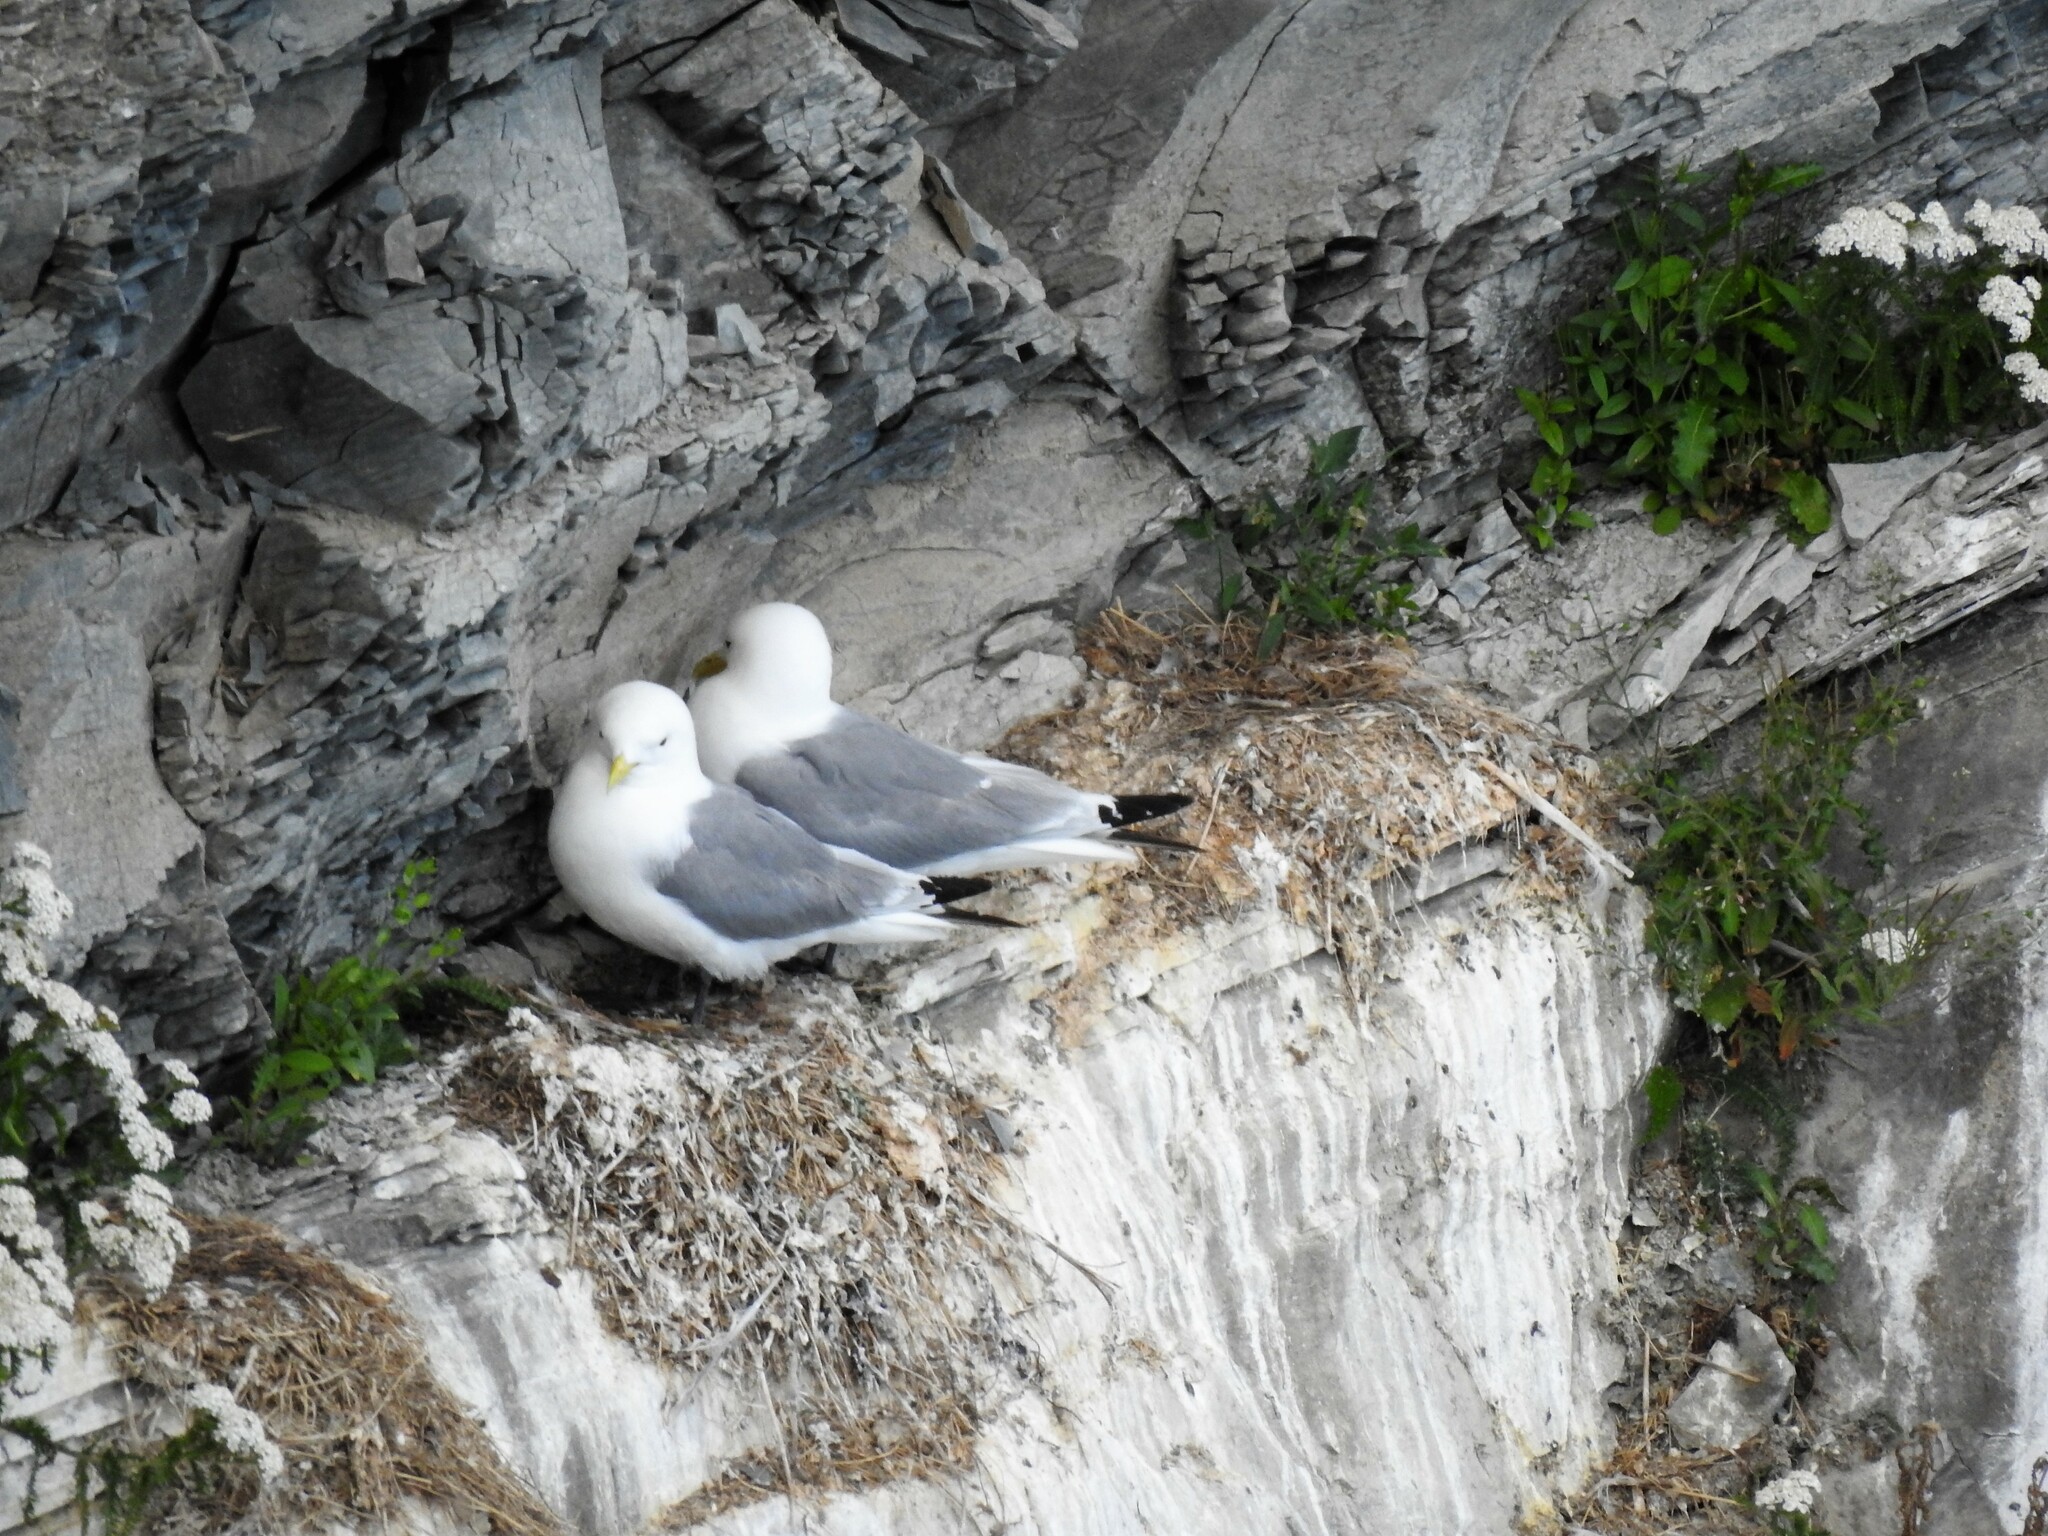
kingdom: Animalia
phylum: Chordata
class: Aves
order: Charadriiformes
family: Laridae
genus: Rissa
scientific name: Rissa tridactyla
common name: Black-legged kittiwake
